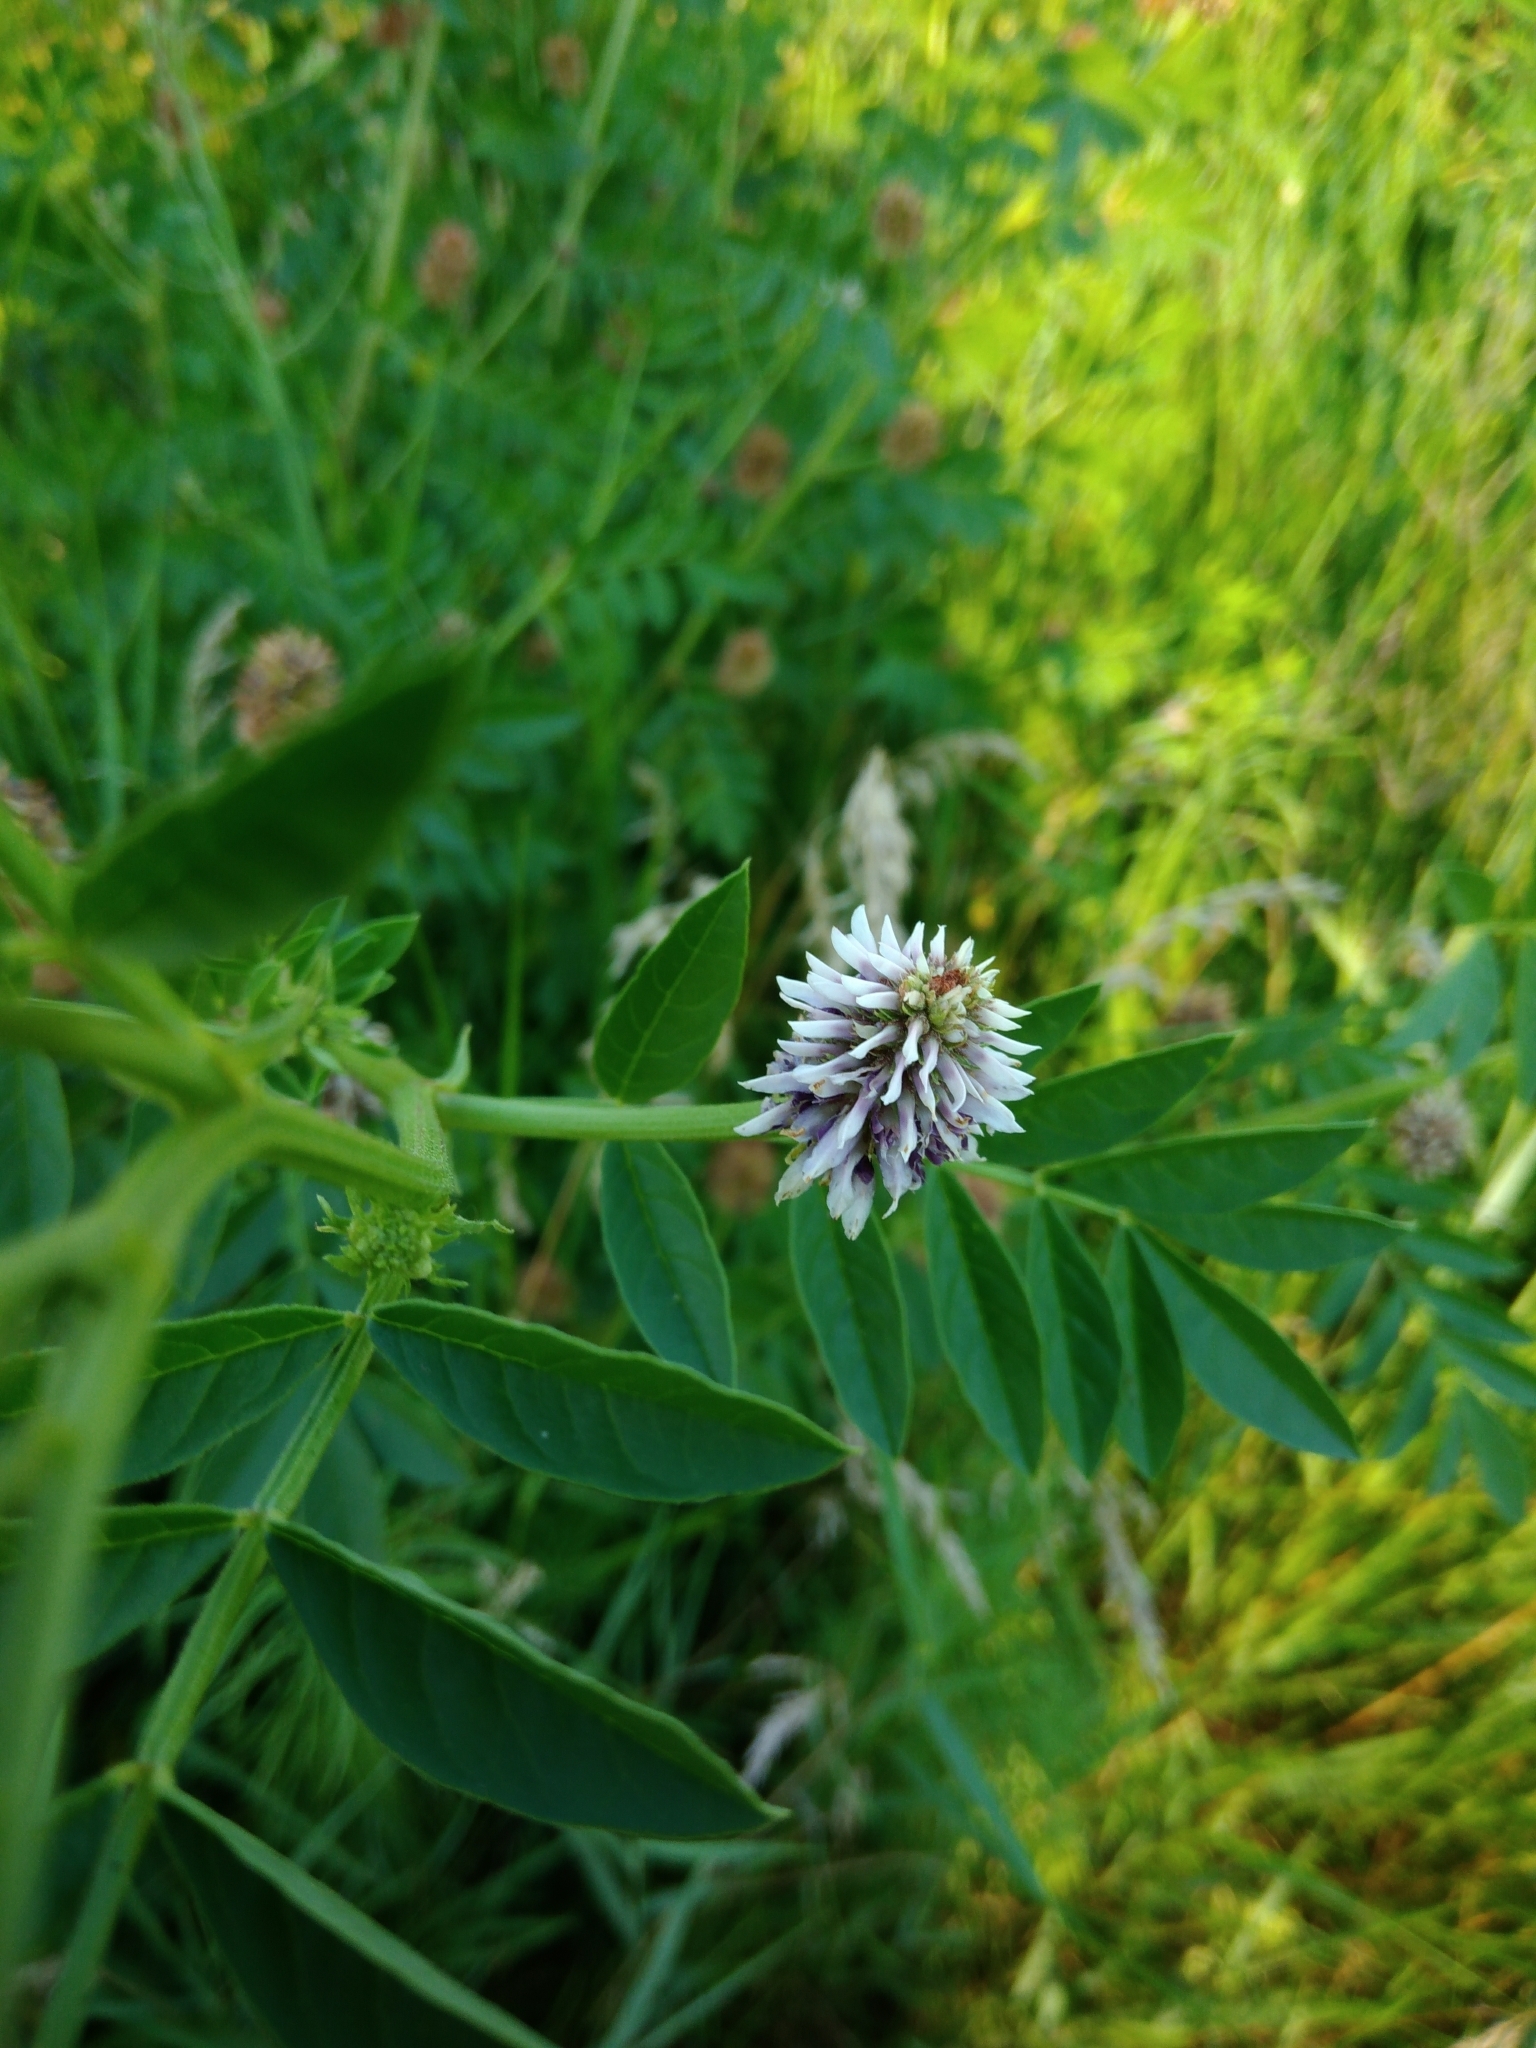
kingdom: Plantae
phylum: Tracheophyta
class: Magnoliopsida
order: Fabales
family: Fabaceae
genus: Glycyrrhiza
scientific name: Glycyrrhiza echinata
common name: German liquorice
